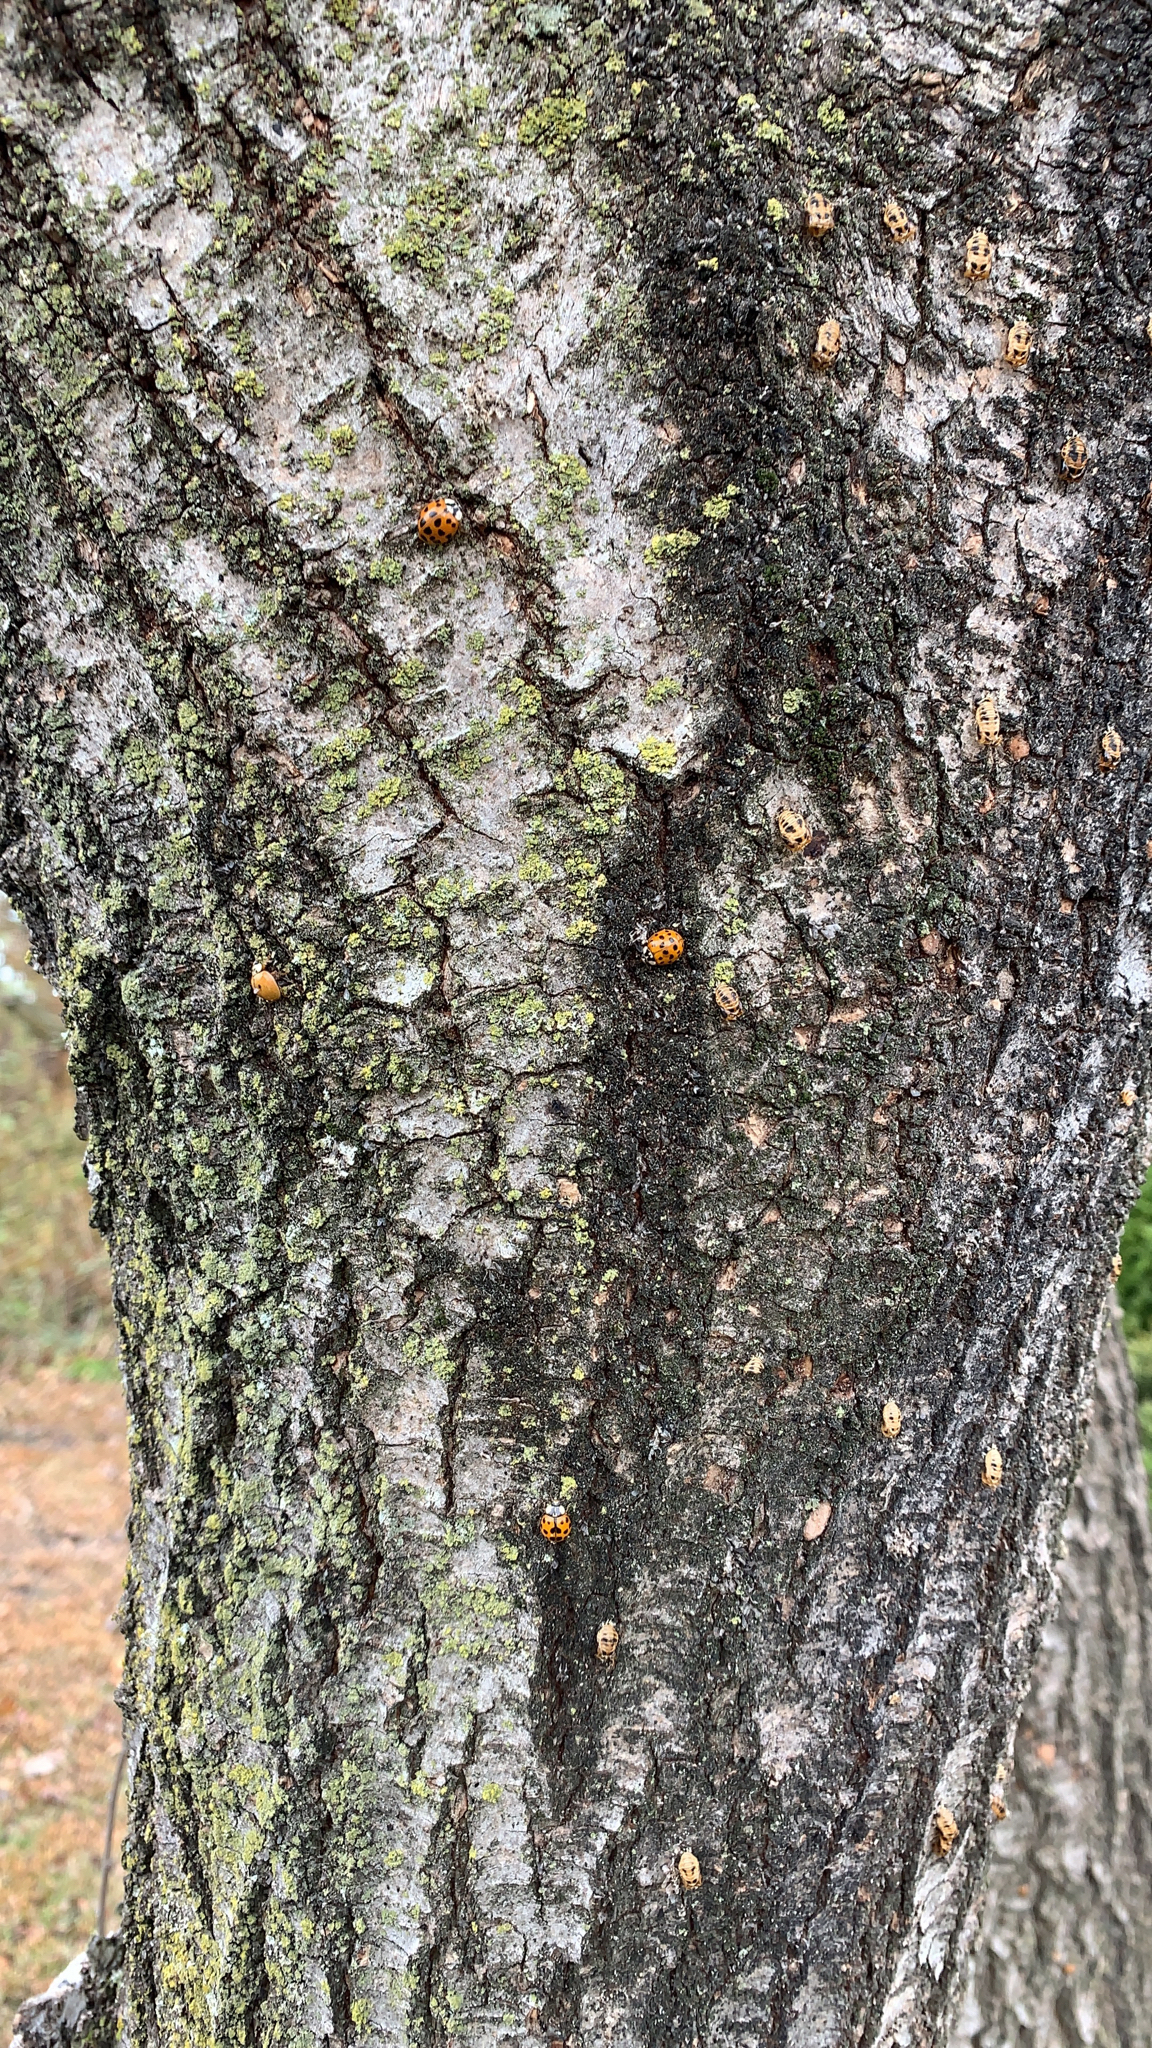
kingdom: Animalia
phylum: Arthropoda
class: Insecta
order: Coleoptera
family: Coccinellidae
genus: Harmonia
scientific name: Harmonia axyridis
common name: Harlequin ladybird
